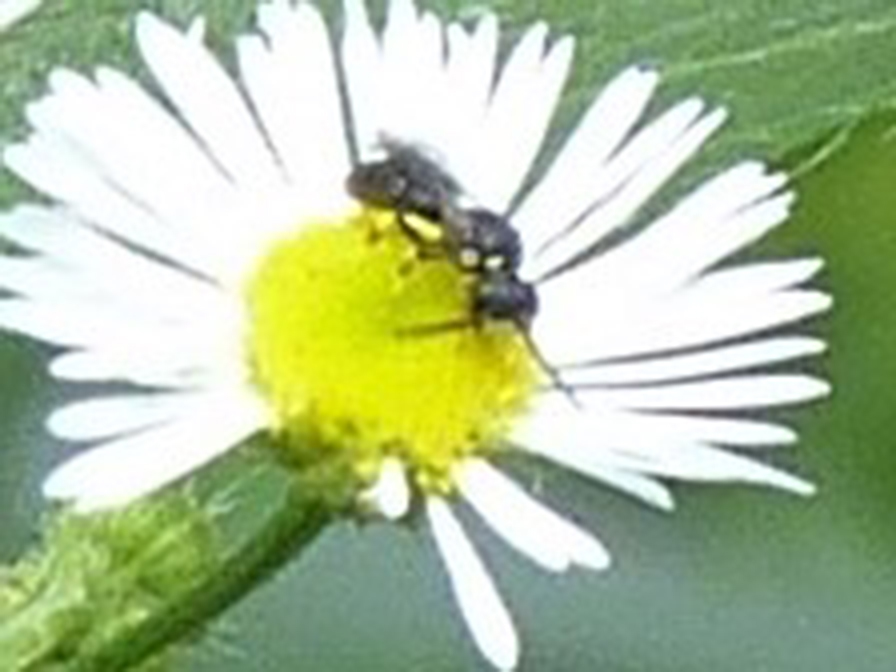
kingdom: Animalia
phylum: Arthropoda
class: Insecta
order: Hymenoptera
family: Colletidae
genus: Hylaeus
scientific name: Hylaeus modestus
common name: Yellow-faced bee
